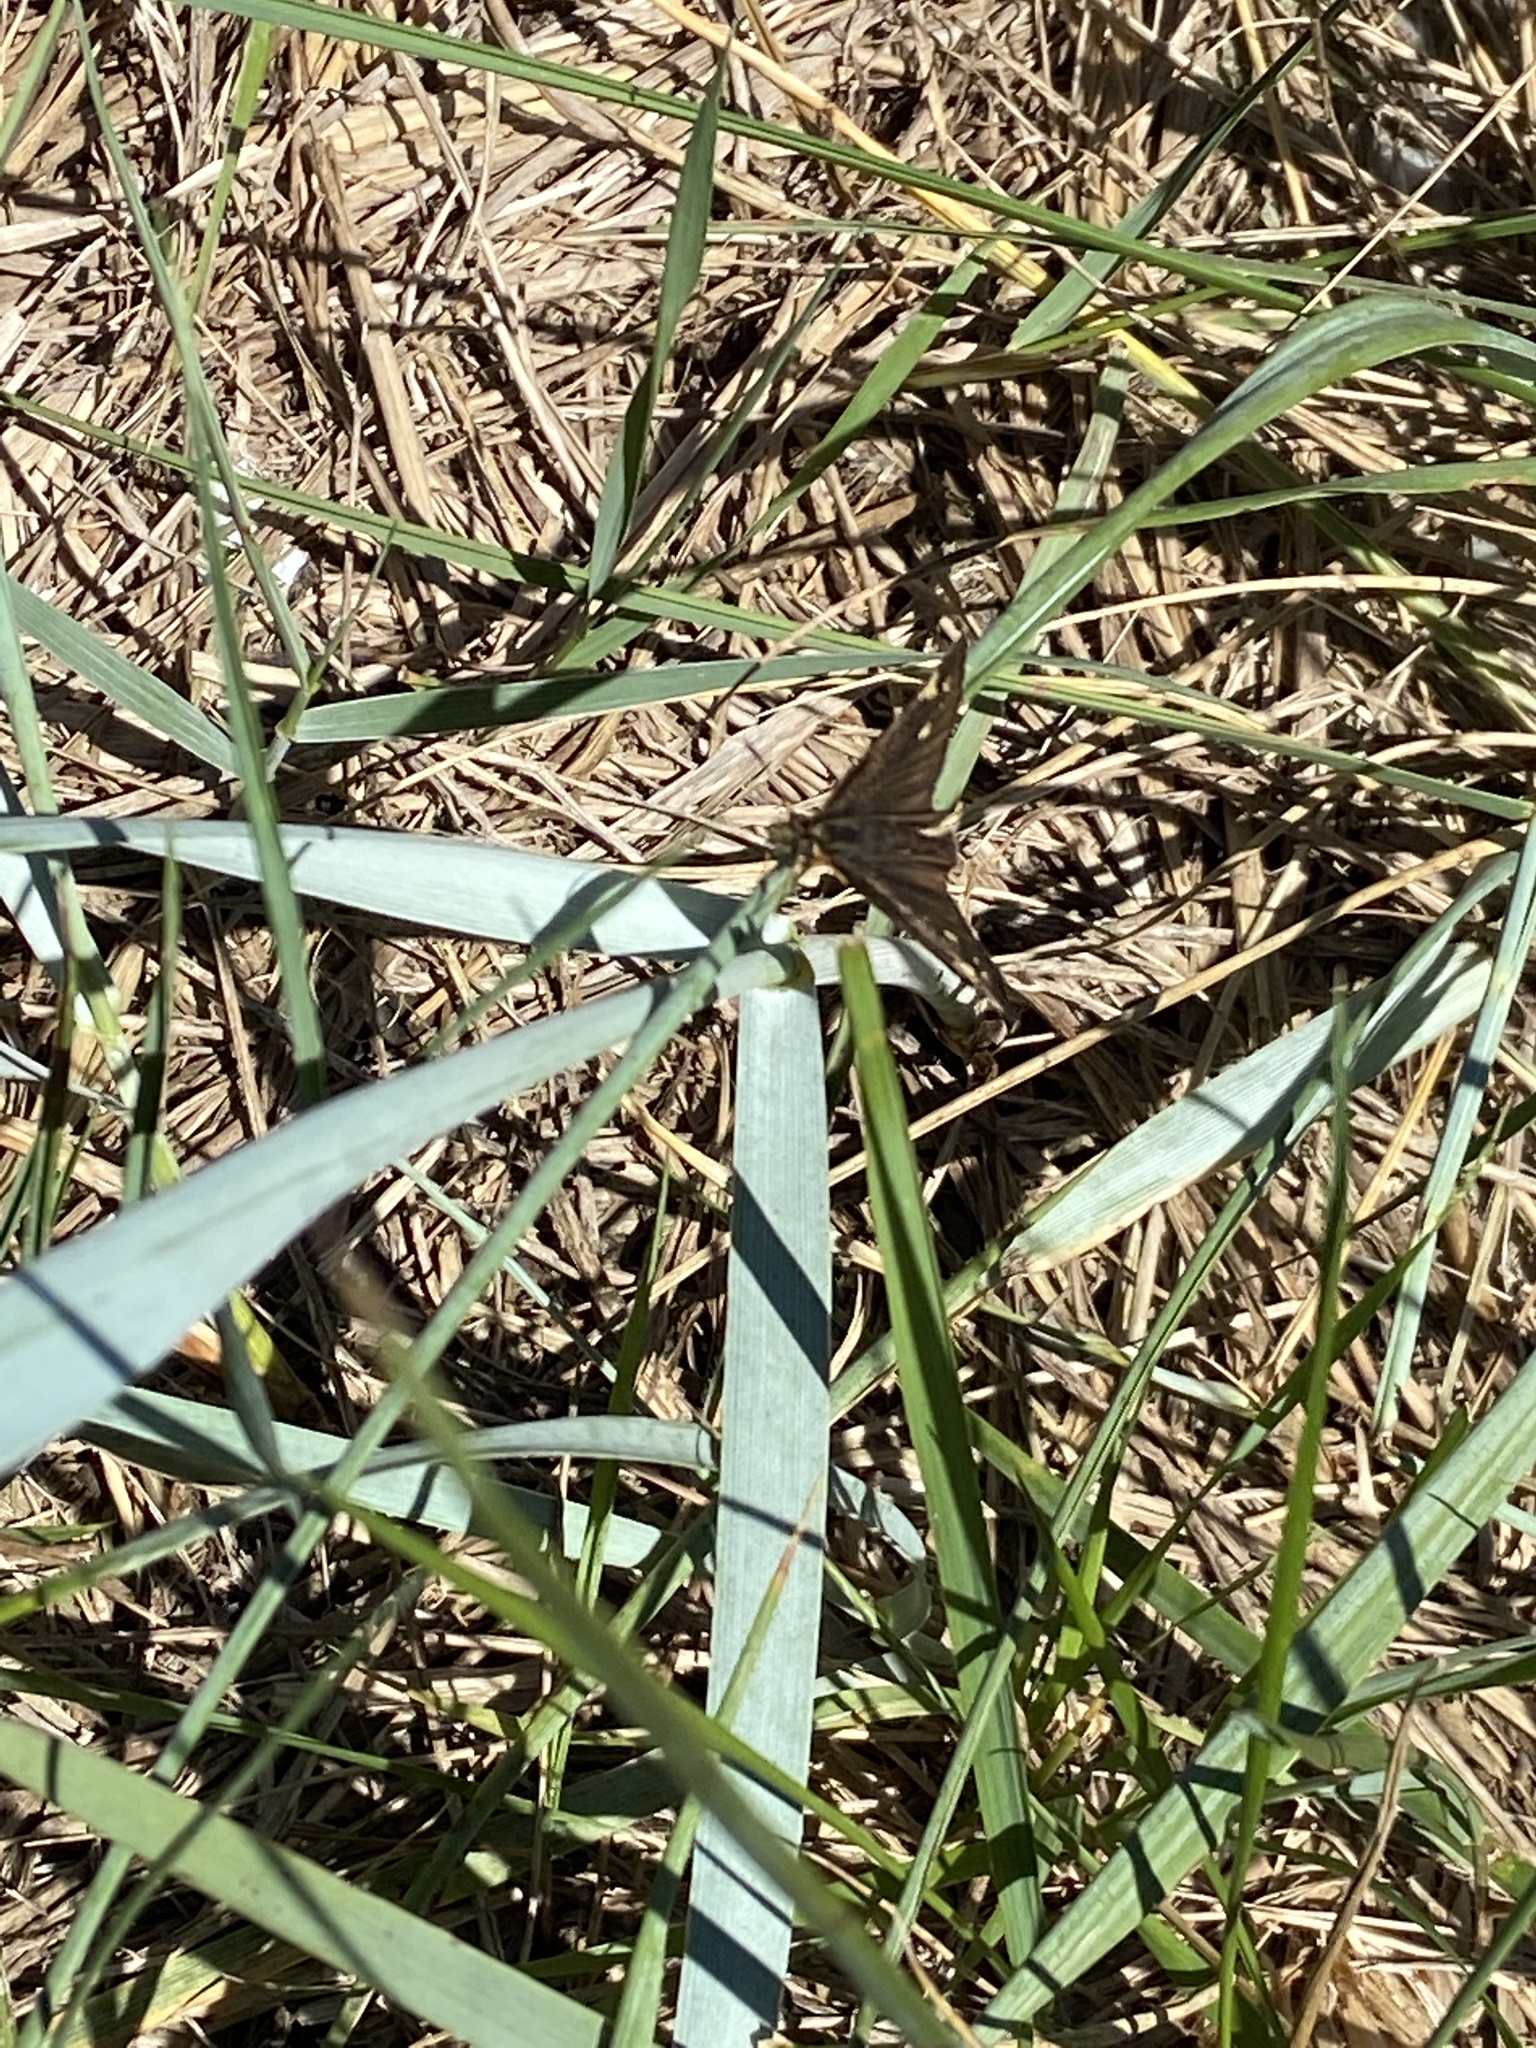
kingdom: Animalia
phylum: Arthropoda
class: Insecta
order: Lepidoptera
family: Hesperiidae
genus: Heteropterus
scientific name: Heteropterus morpheus
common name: Large chequered skipper
